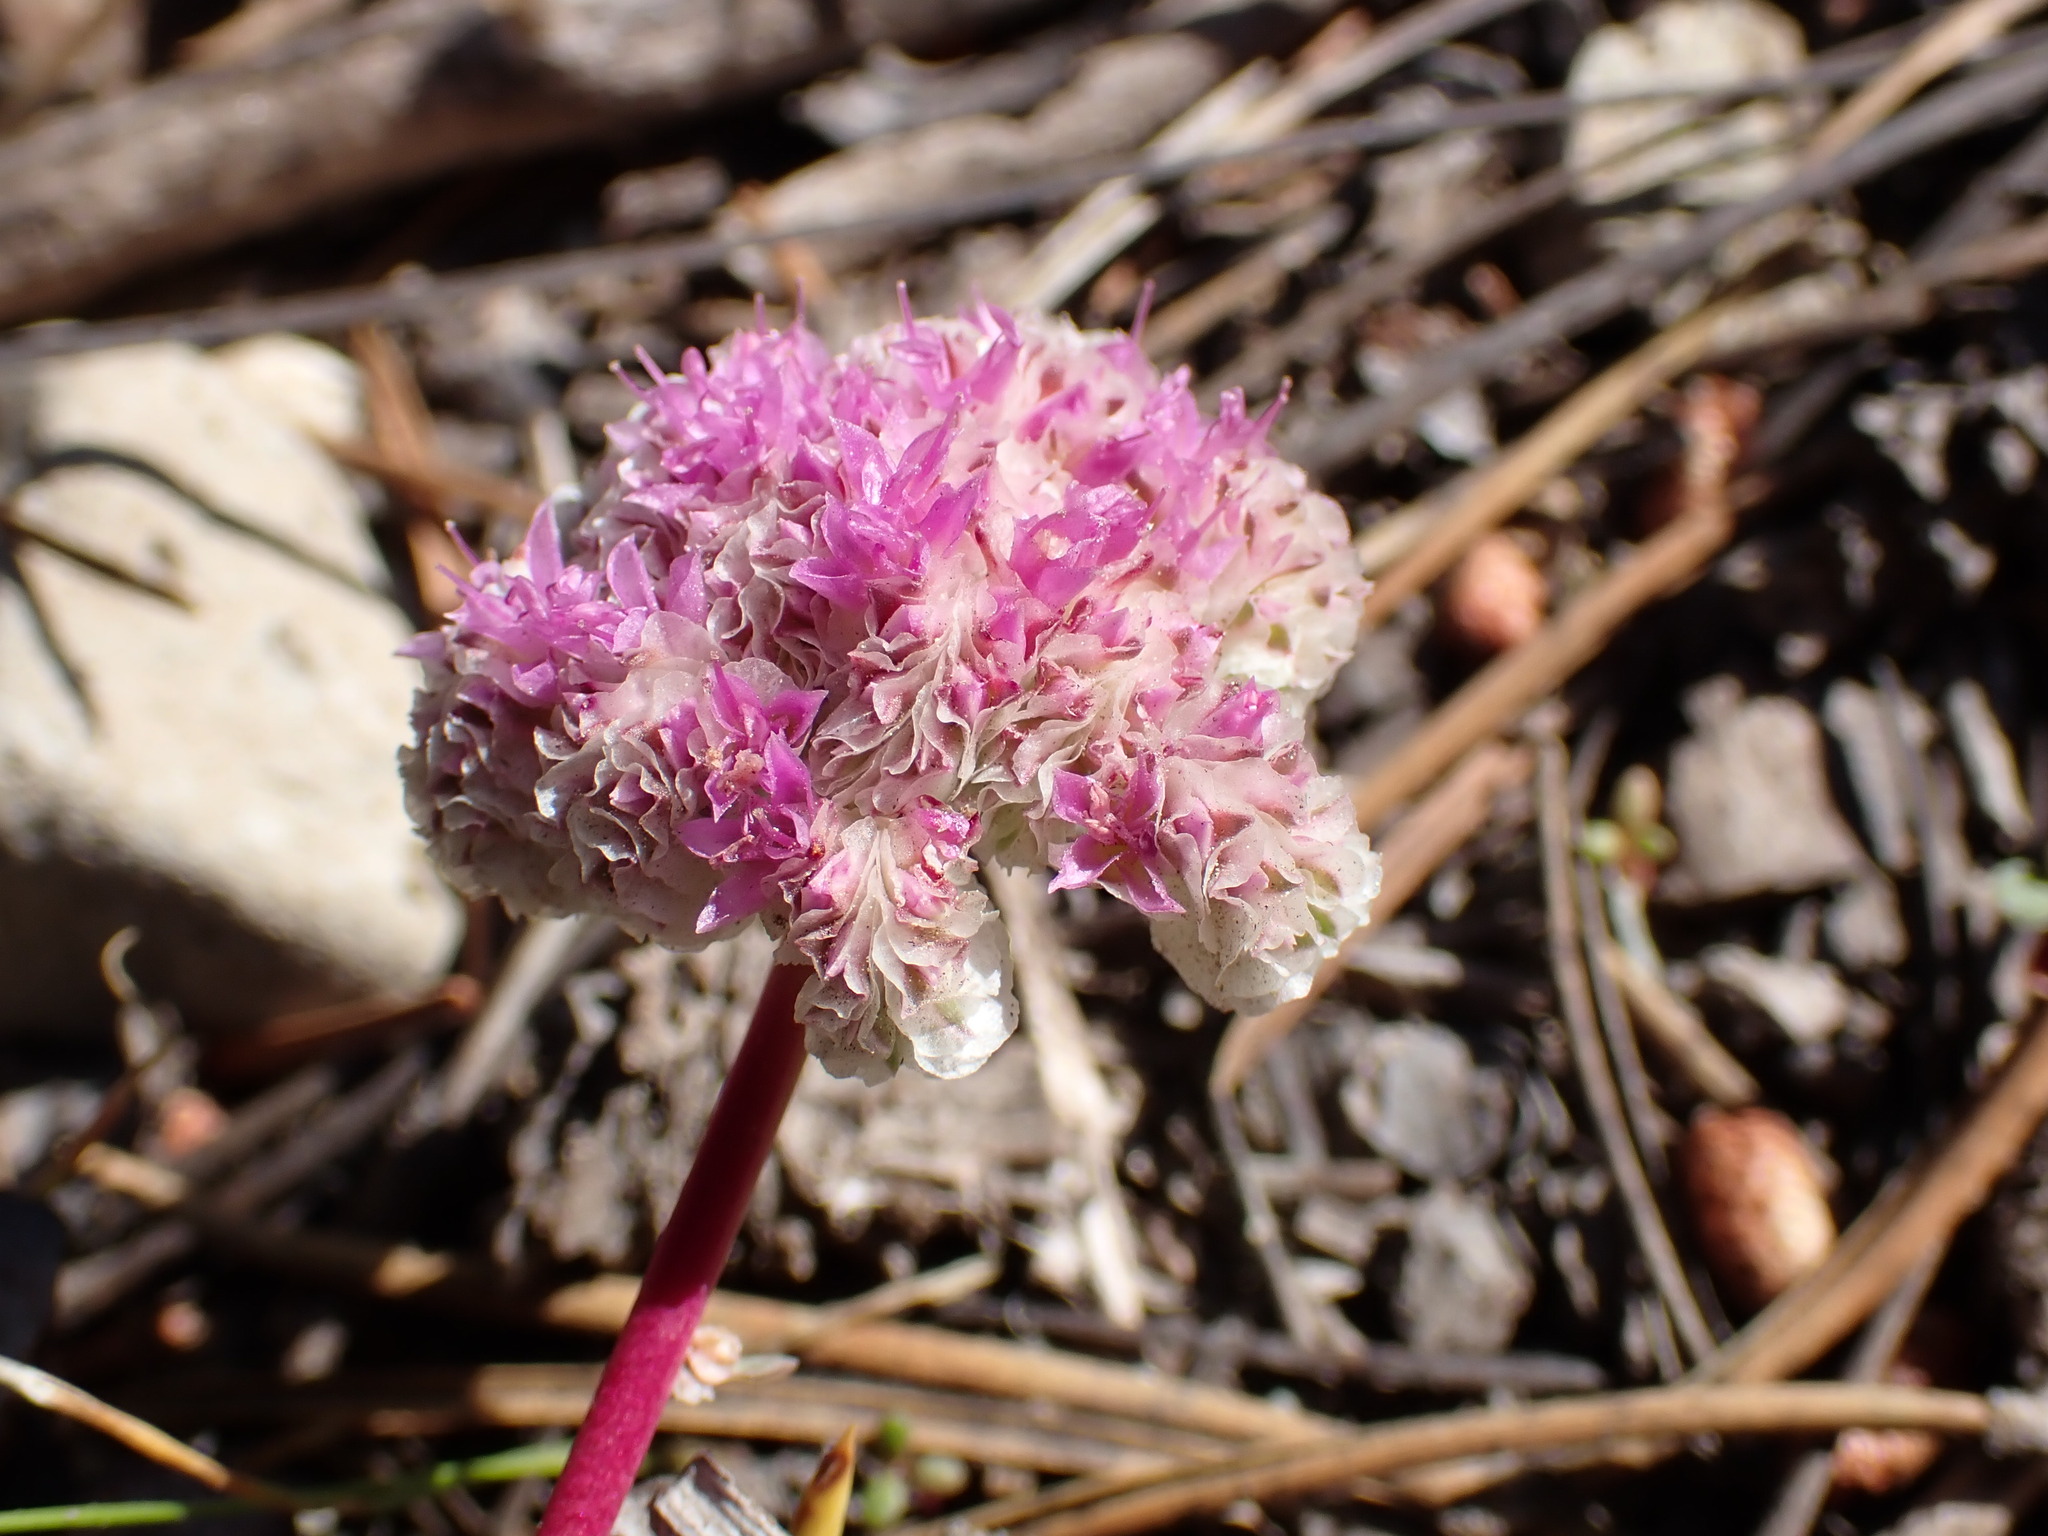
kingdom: Plantae
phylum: Tracheophyta
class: Magnoliopsida
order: Caryophyllales
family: Montiaceae
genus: Calyptridium
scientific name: Calyptridium monospermum
